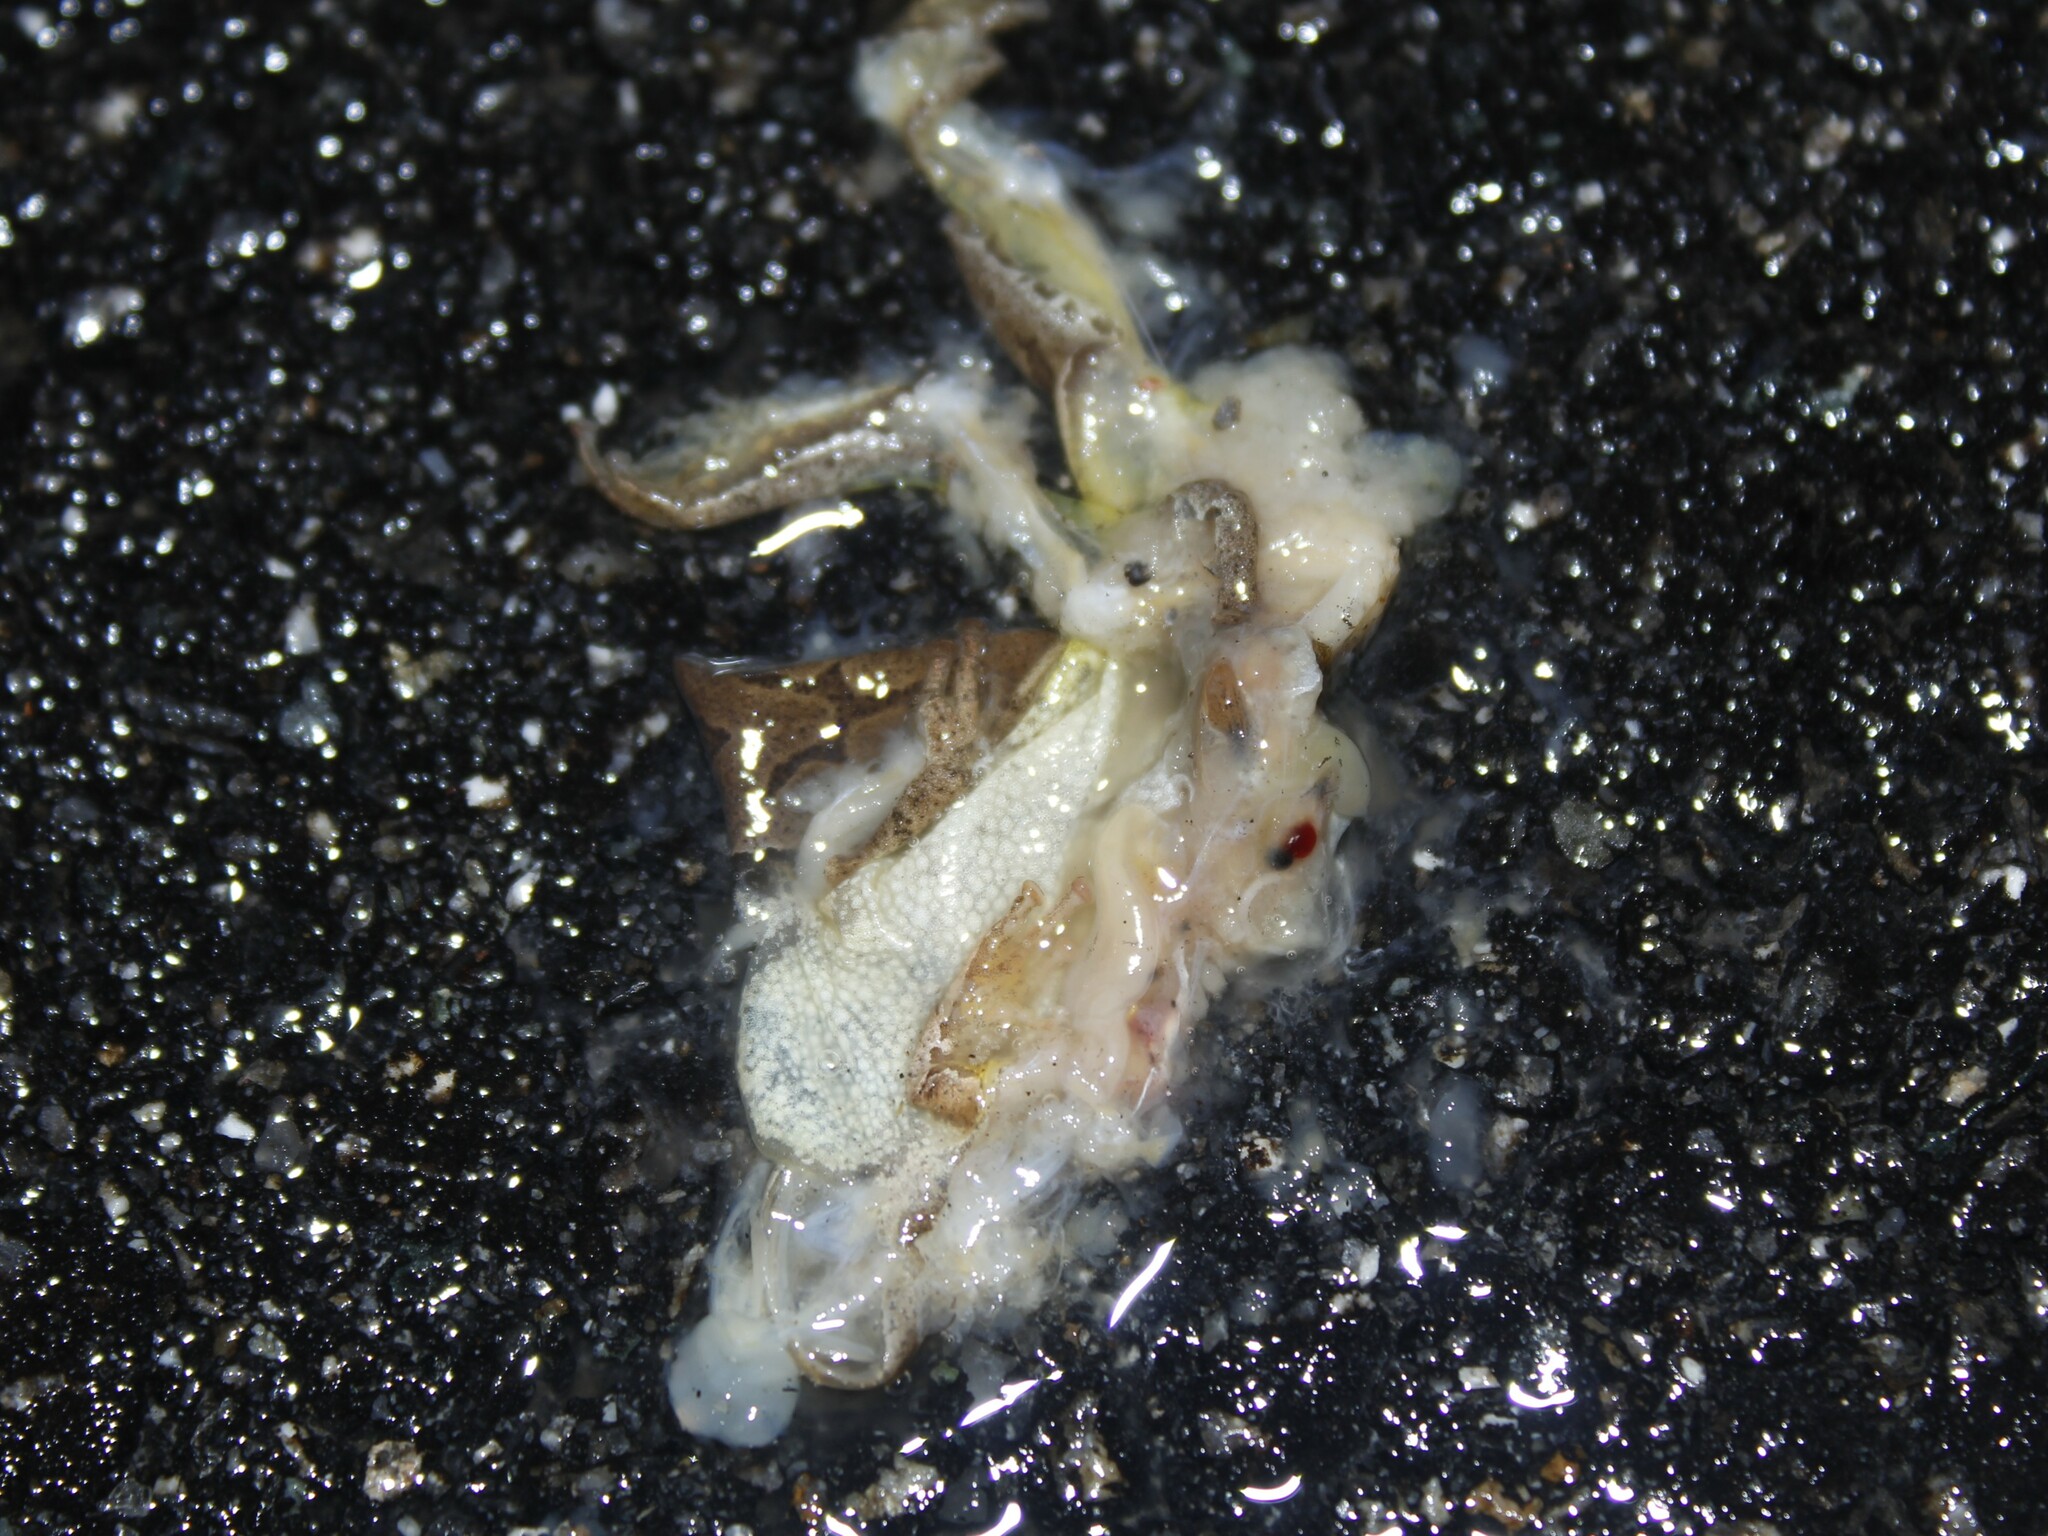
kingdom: Animalia
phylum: Chordata
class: Amphibia
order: Anura
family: Hylidae
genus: Pseudacris
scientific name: Pseudacris crucifer
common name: Spring peeper
